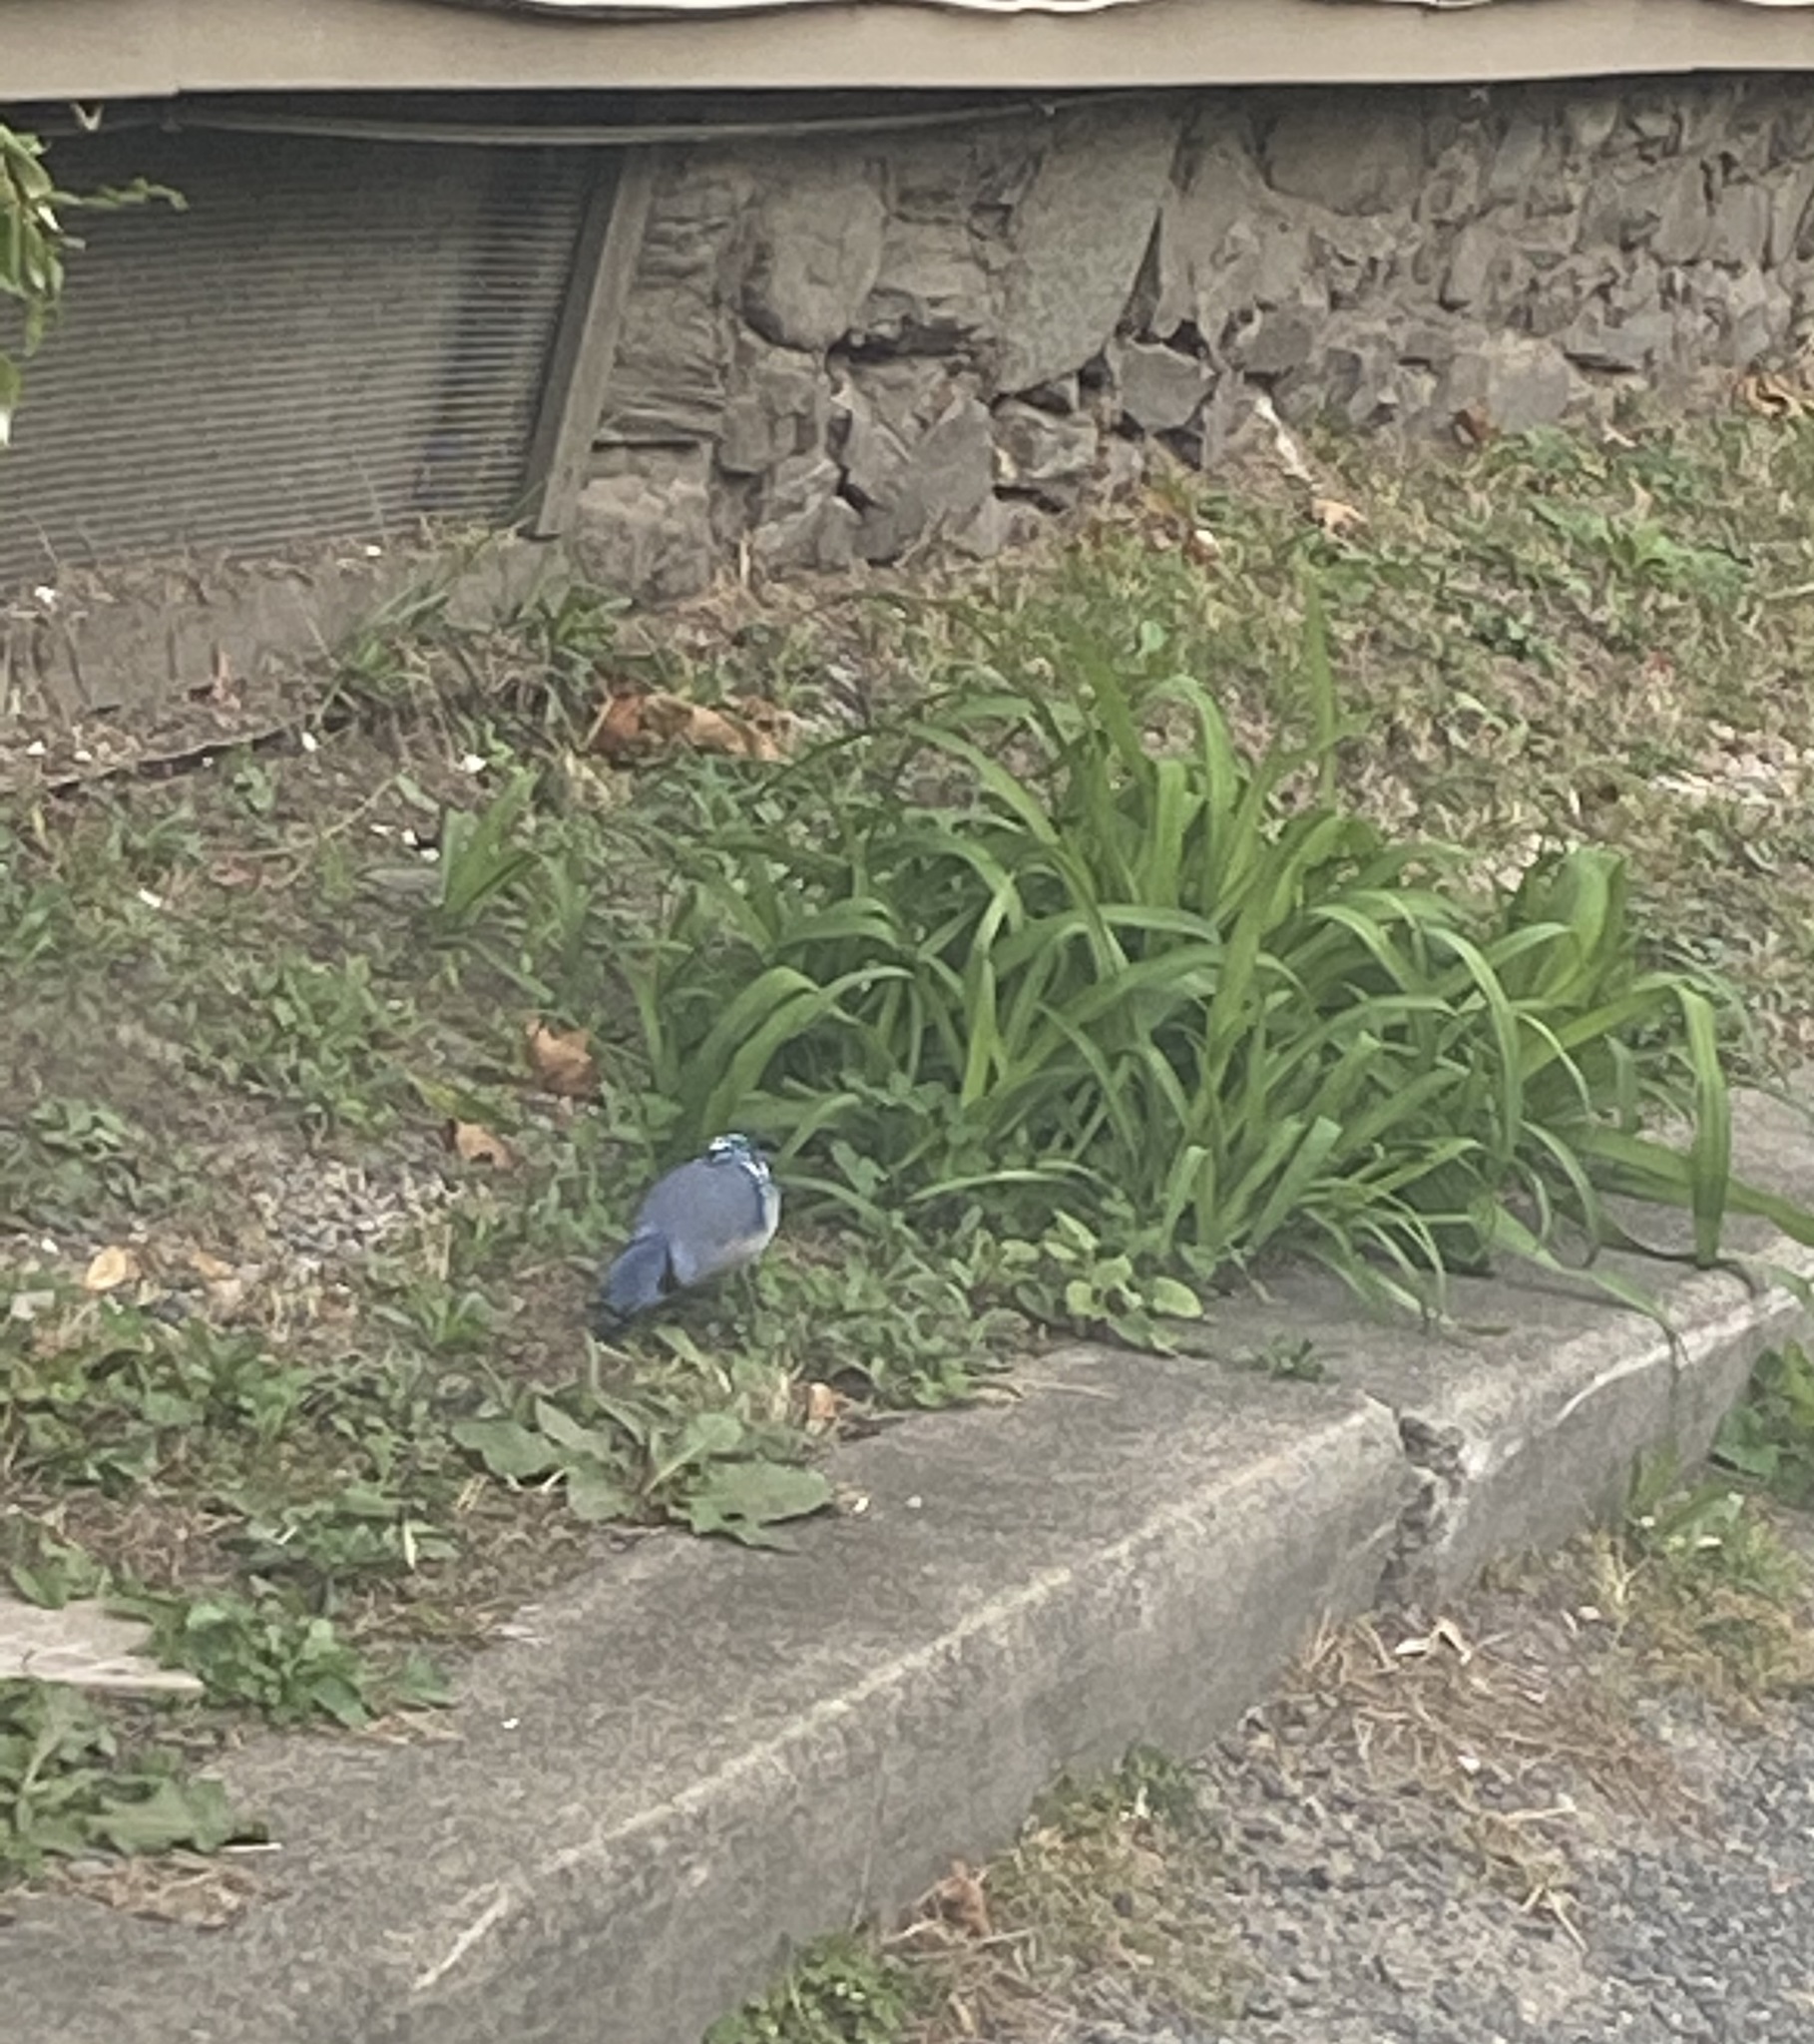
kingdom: Animalia
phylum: Chordata
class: Aves
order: Passeriformes
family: Corvidae
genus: Cyanocitta
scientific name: Cyanocitta cristata
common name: Blue jay
